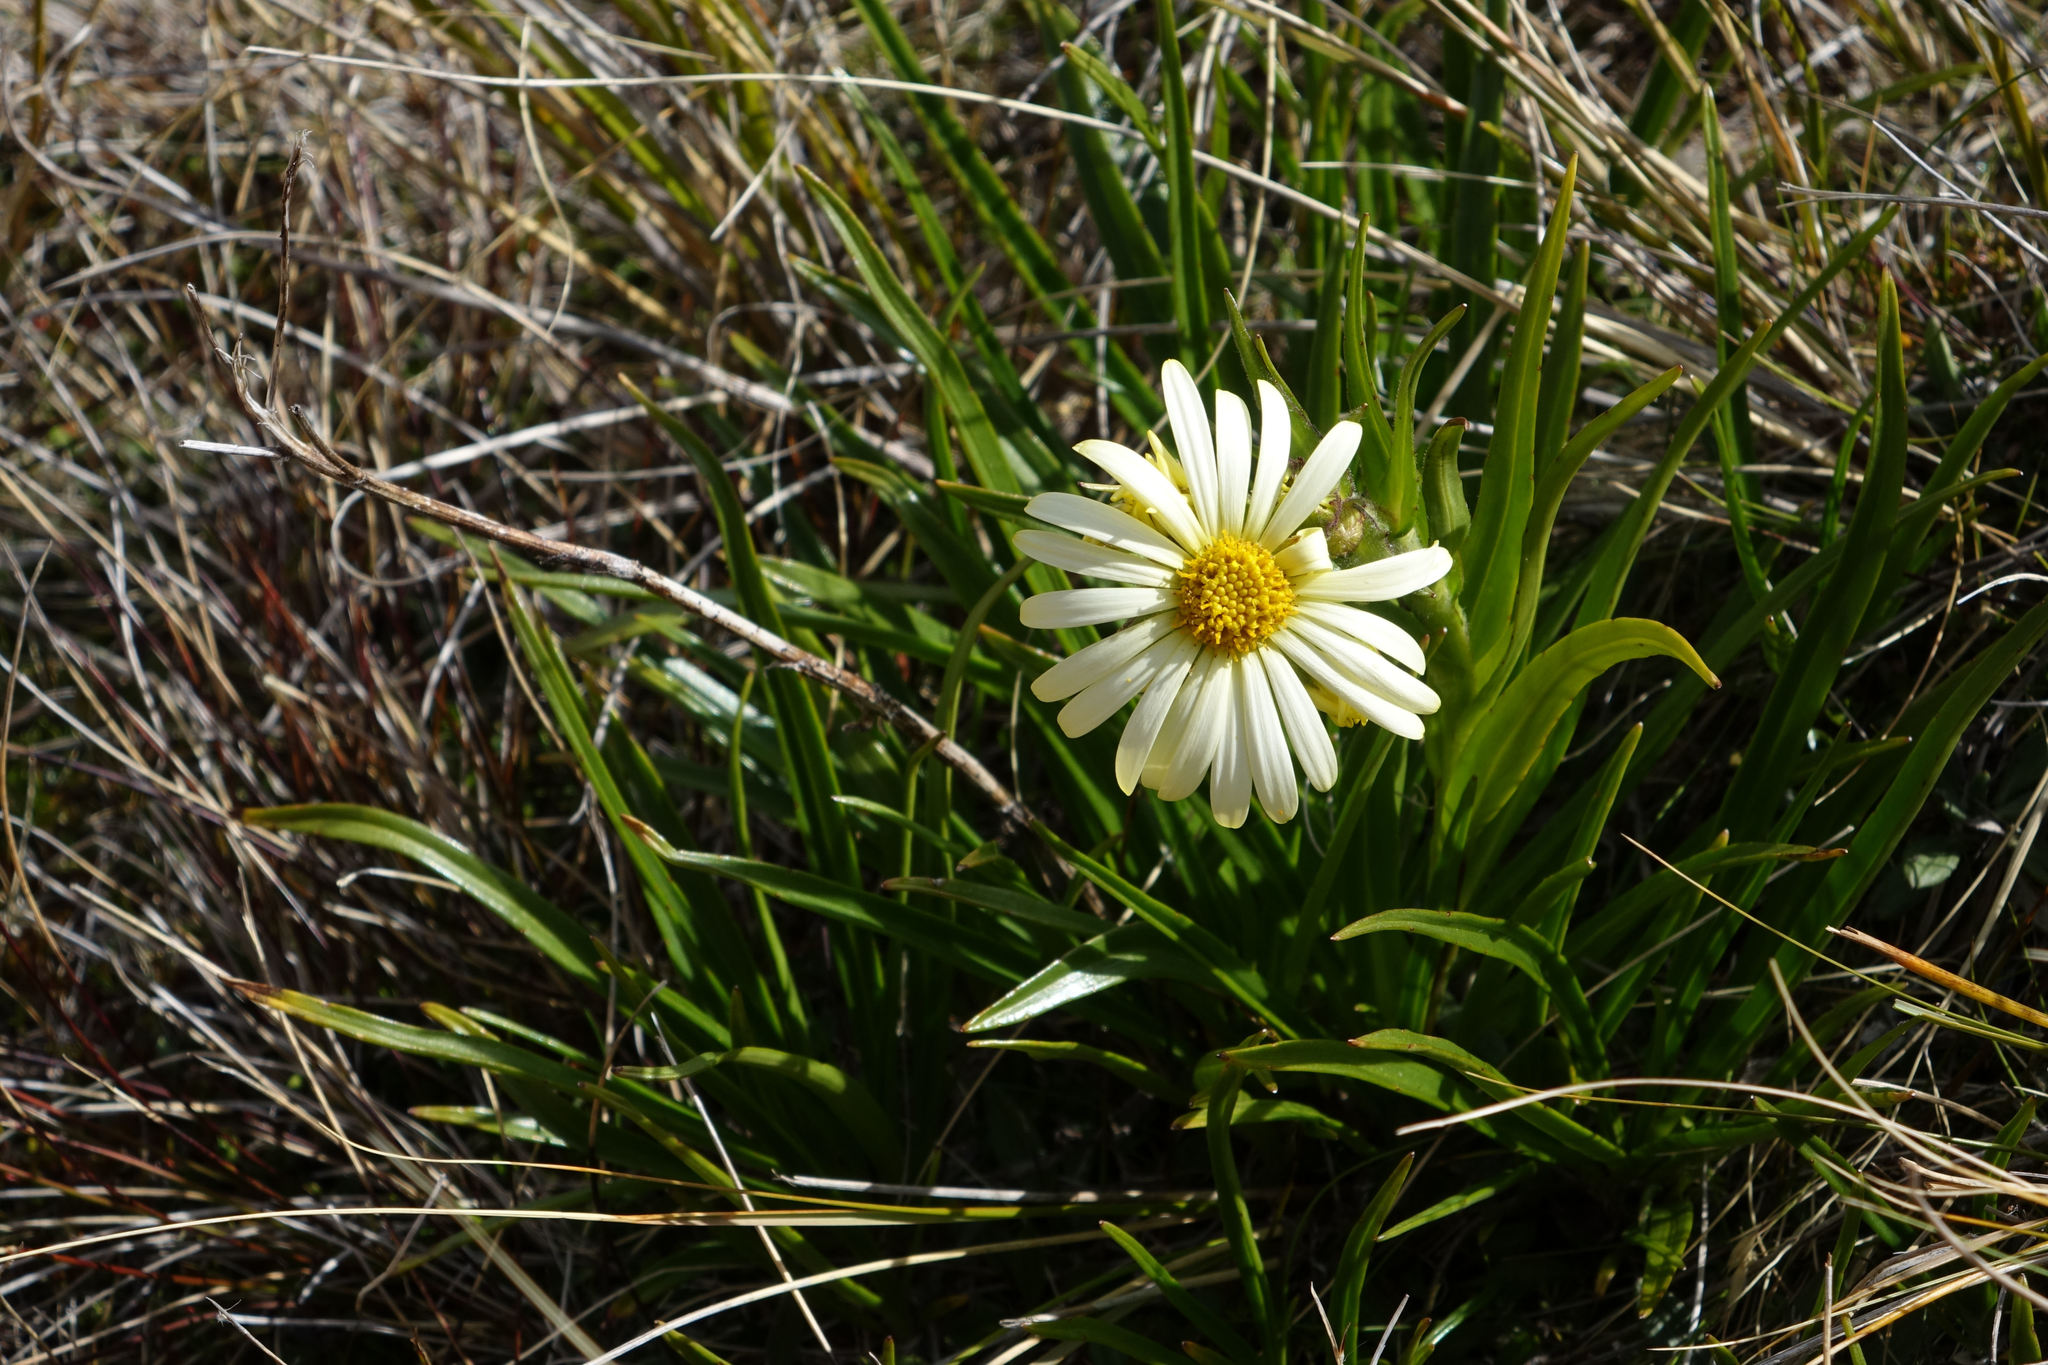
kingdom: Plantae
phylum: Tracheophyta
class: Magnoliopsida
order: Asterales
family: Asteraceae
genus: Dolichoglottis
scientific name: Dolichoglottis
